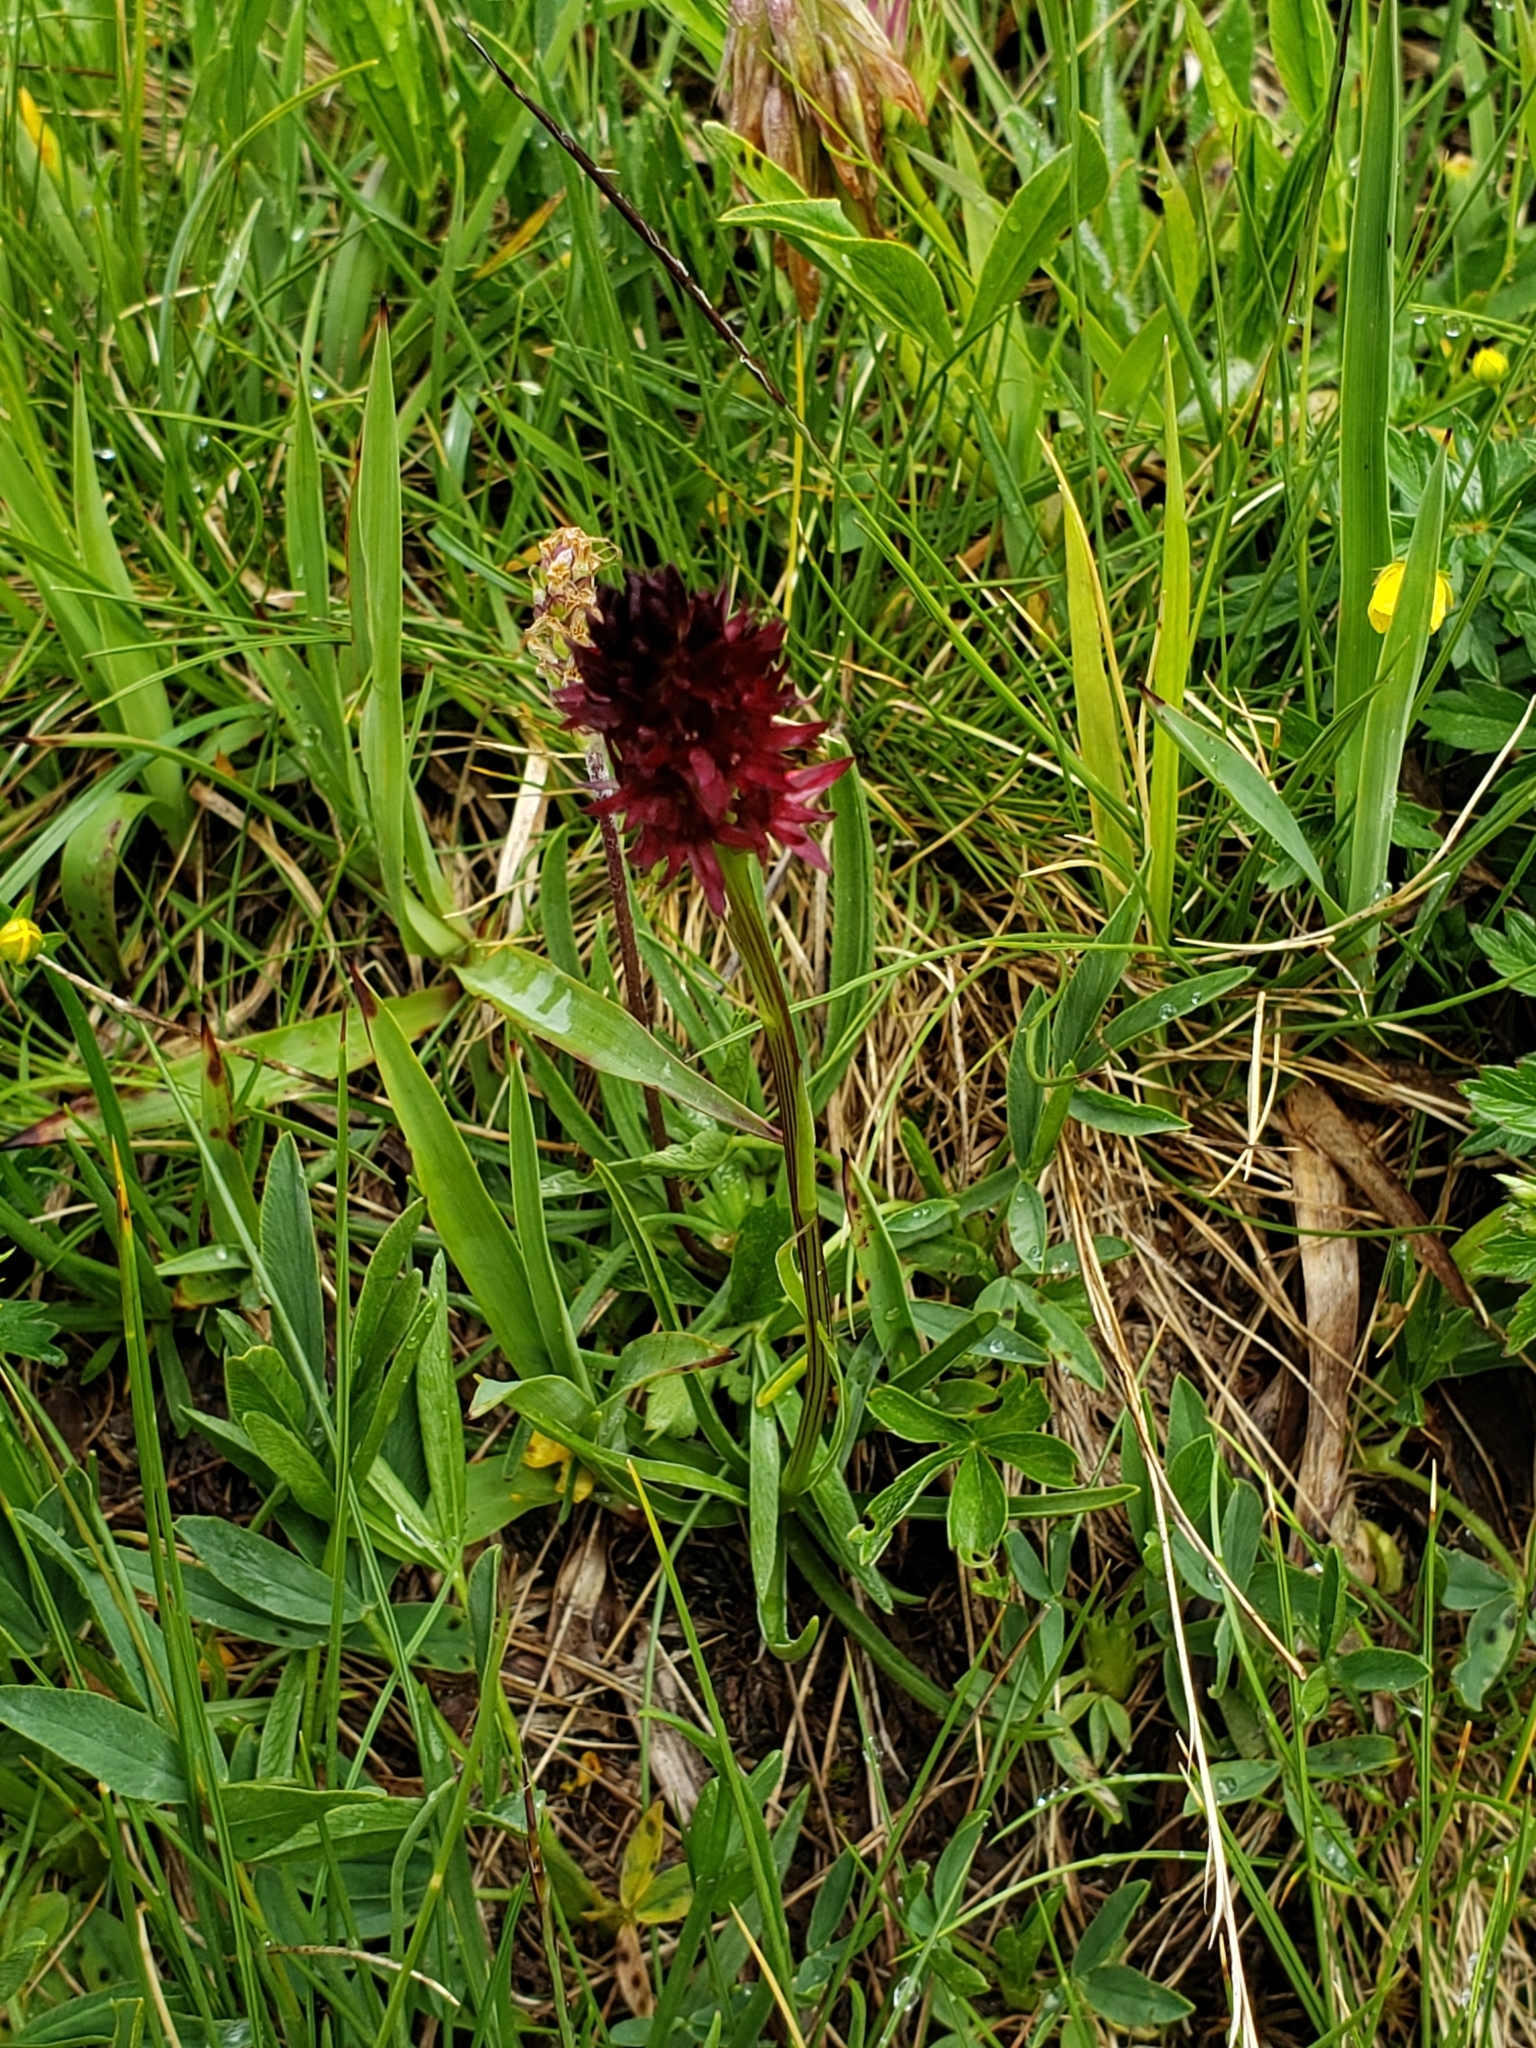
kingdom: Plantae
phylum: Tracheophyta
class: Liliopsida
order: Asparagales
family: Orchidaceae
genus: Gymnadenia
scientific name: Gymnadenia rhellicani
